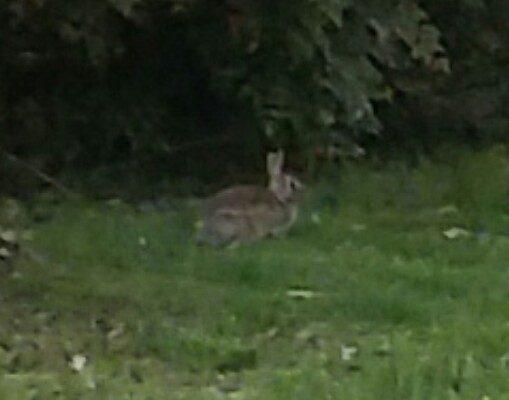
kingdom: Animalia
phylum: Chordata
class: Mammalia
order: Lagomorpha
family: Leporidae
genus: Sylvilagus
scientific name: Sylvilagus floridanus
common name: Eastern cottontail
